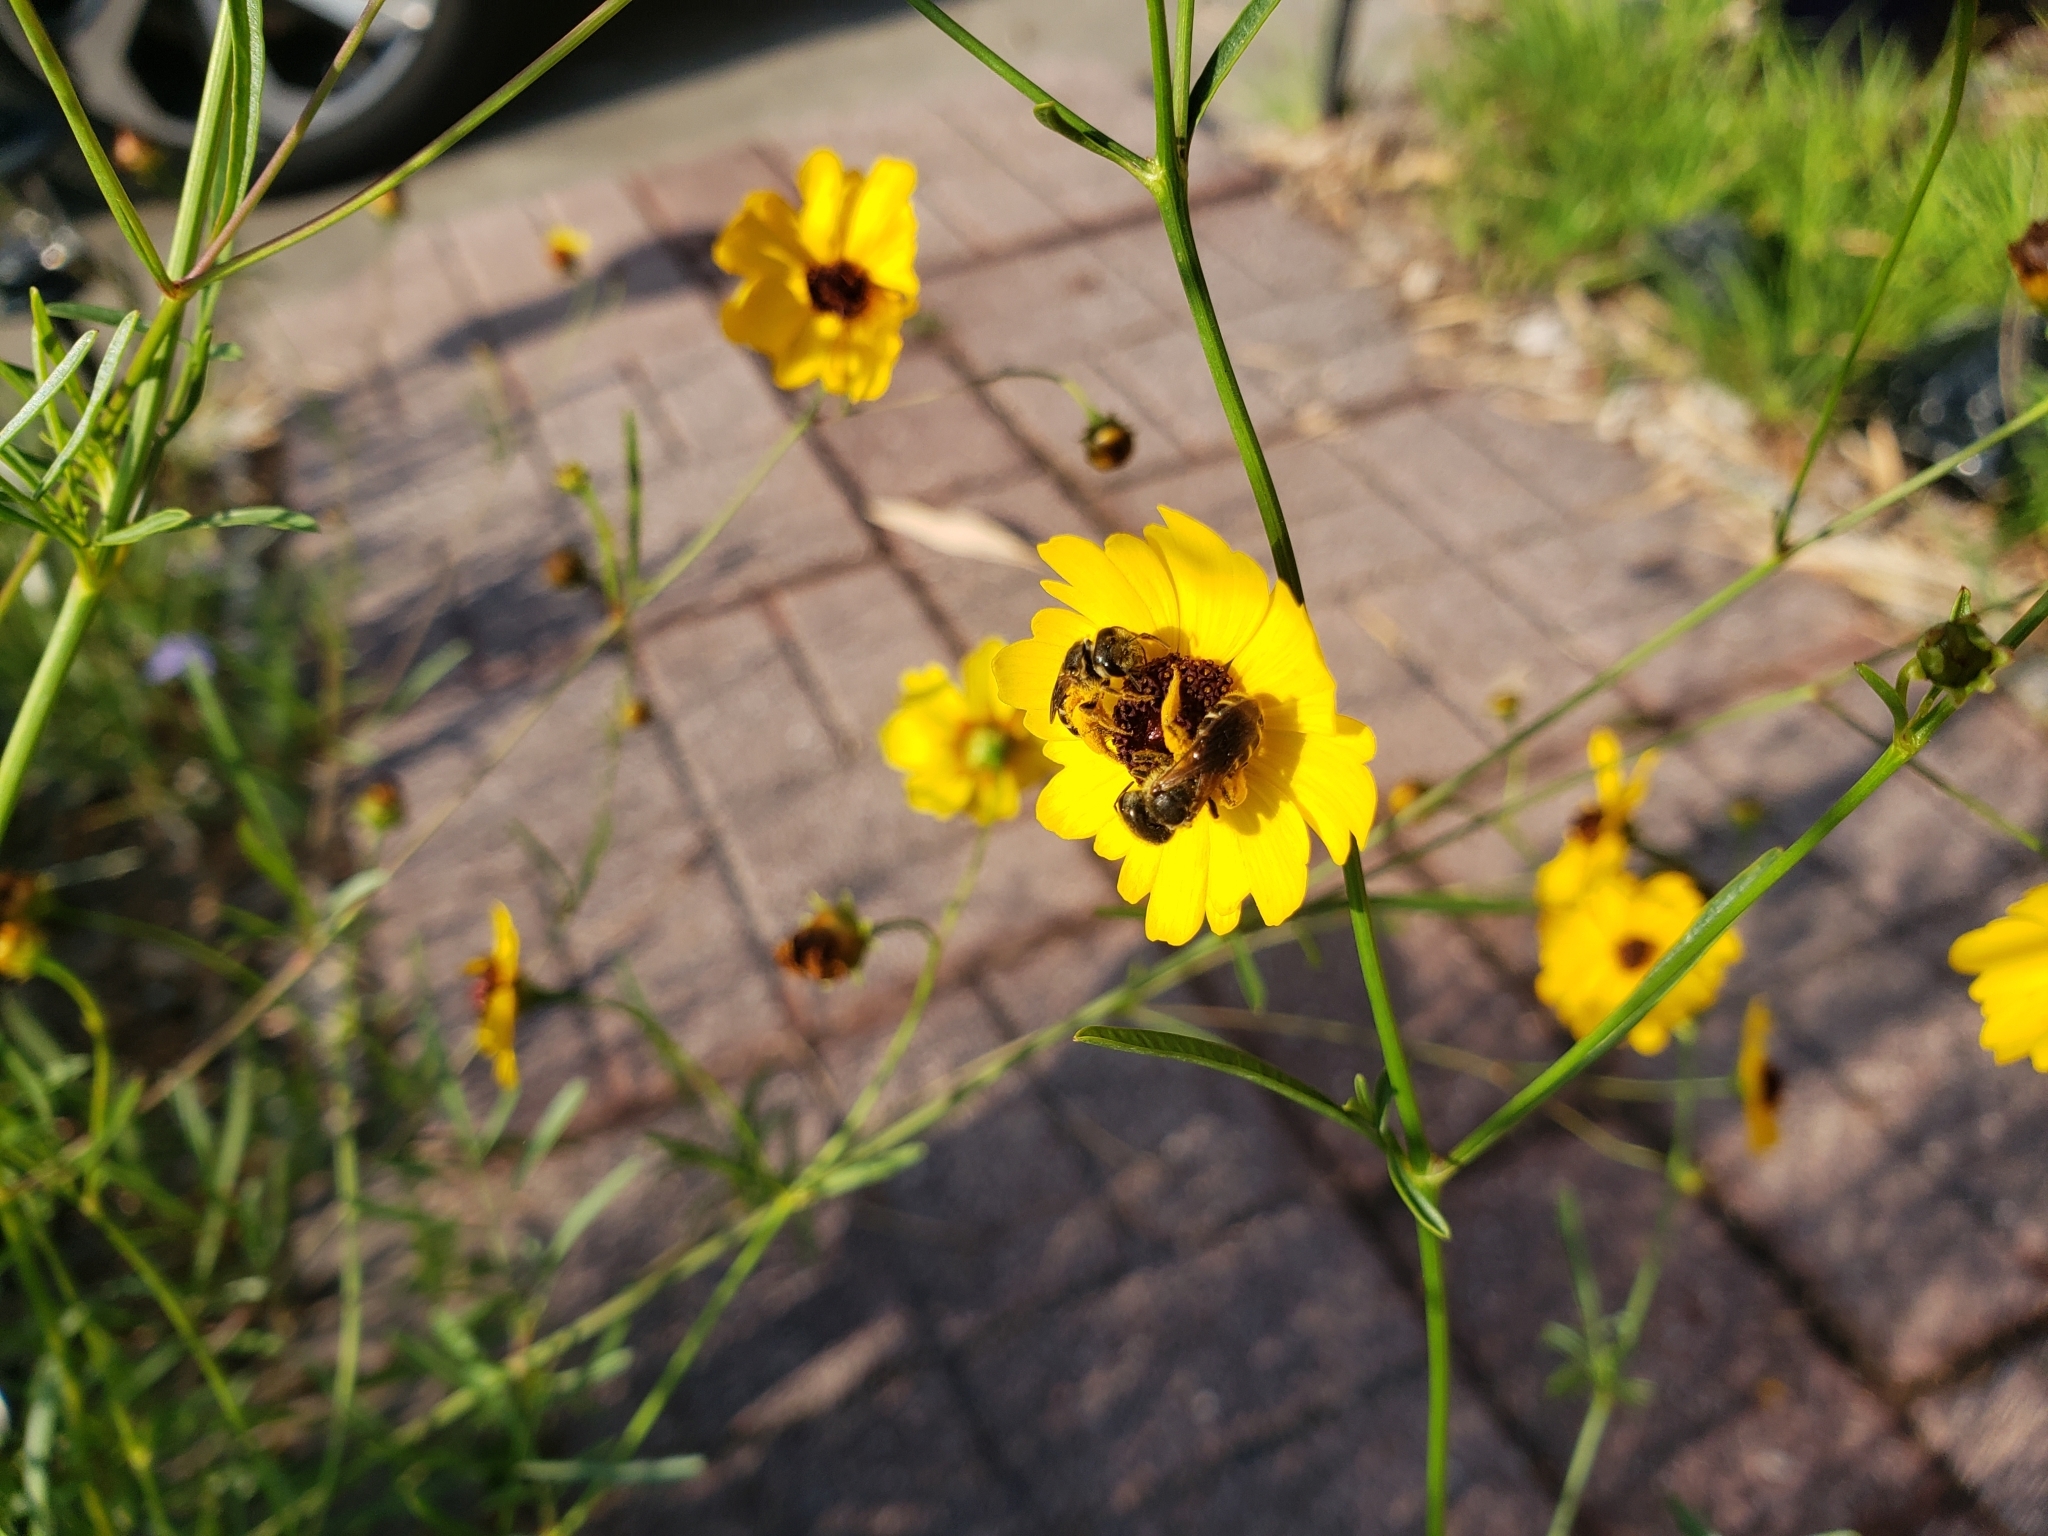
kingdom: Animalia
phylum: Arthropoda
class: Insecta
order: Hymenoptera
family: Halictidae
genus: Halictus
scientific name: Halictus poeyi
